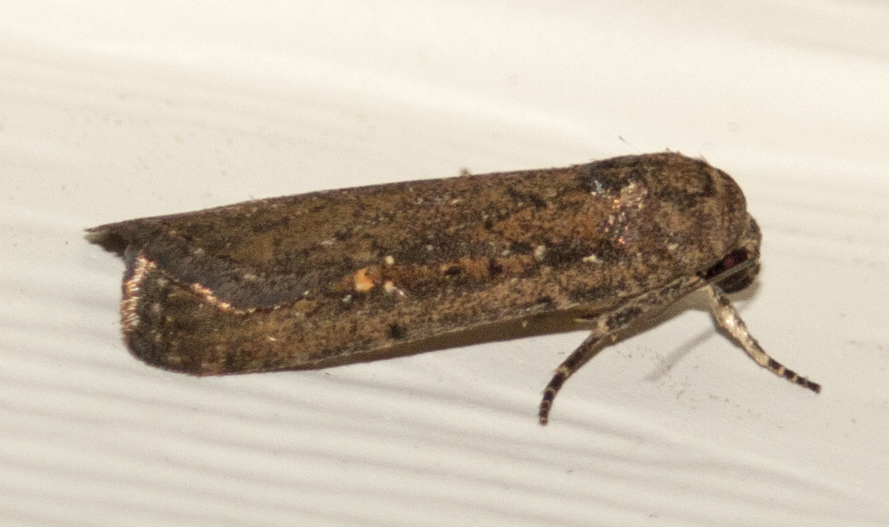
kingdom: Animalia
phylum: Arthropoda
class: Insecta
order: Lepidoptera
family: Noctuidae
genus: Athetis
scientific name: Athetis tenuis
